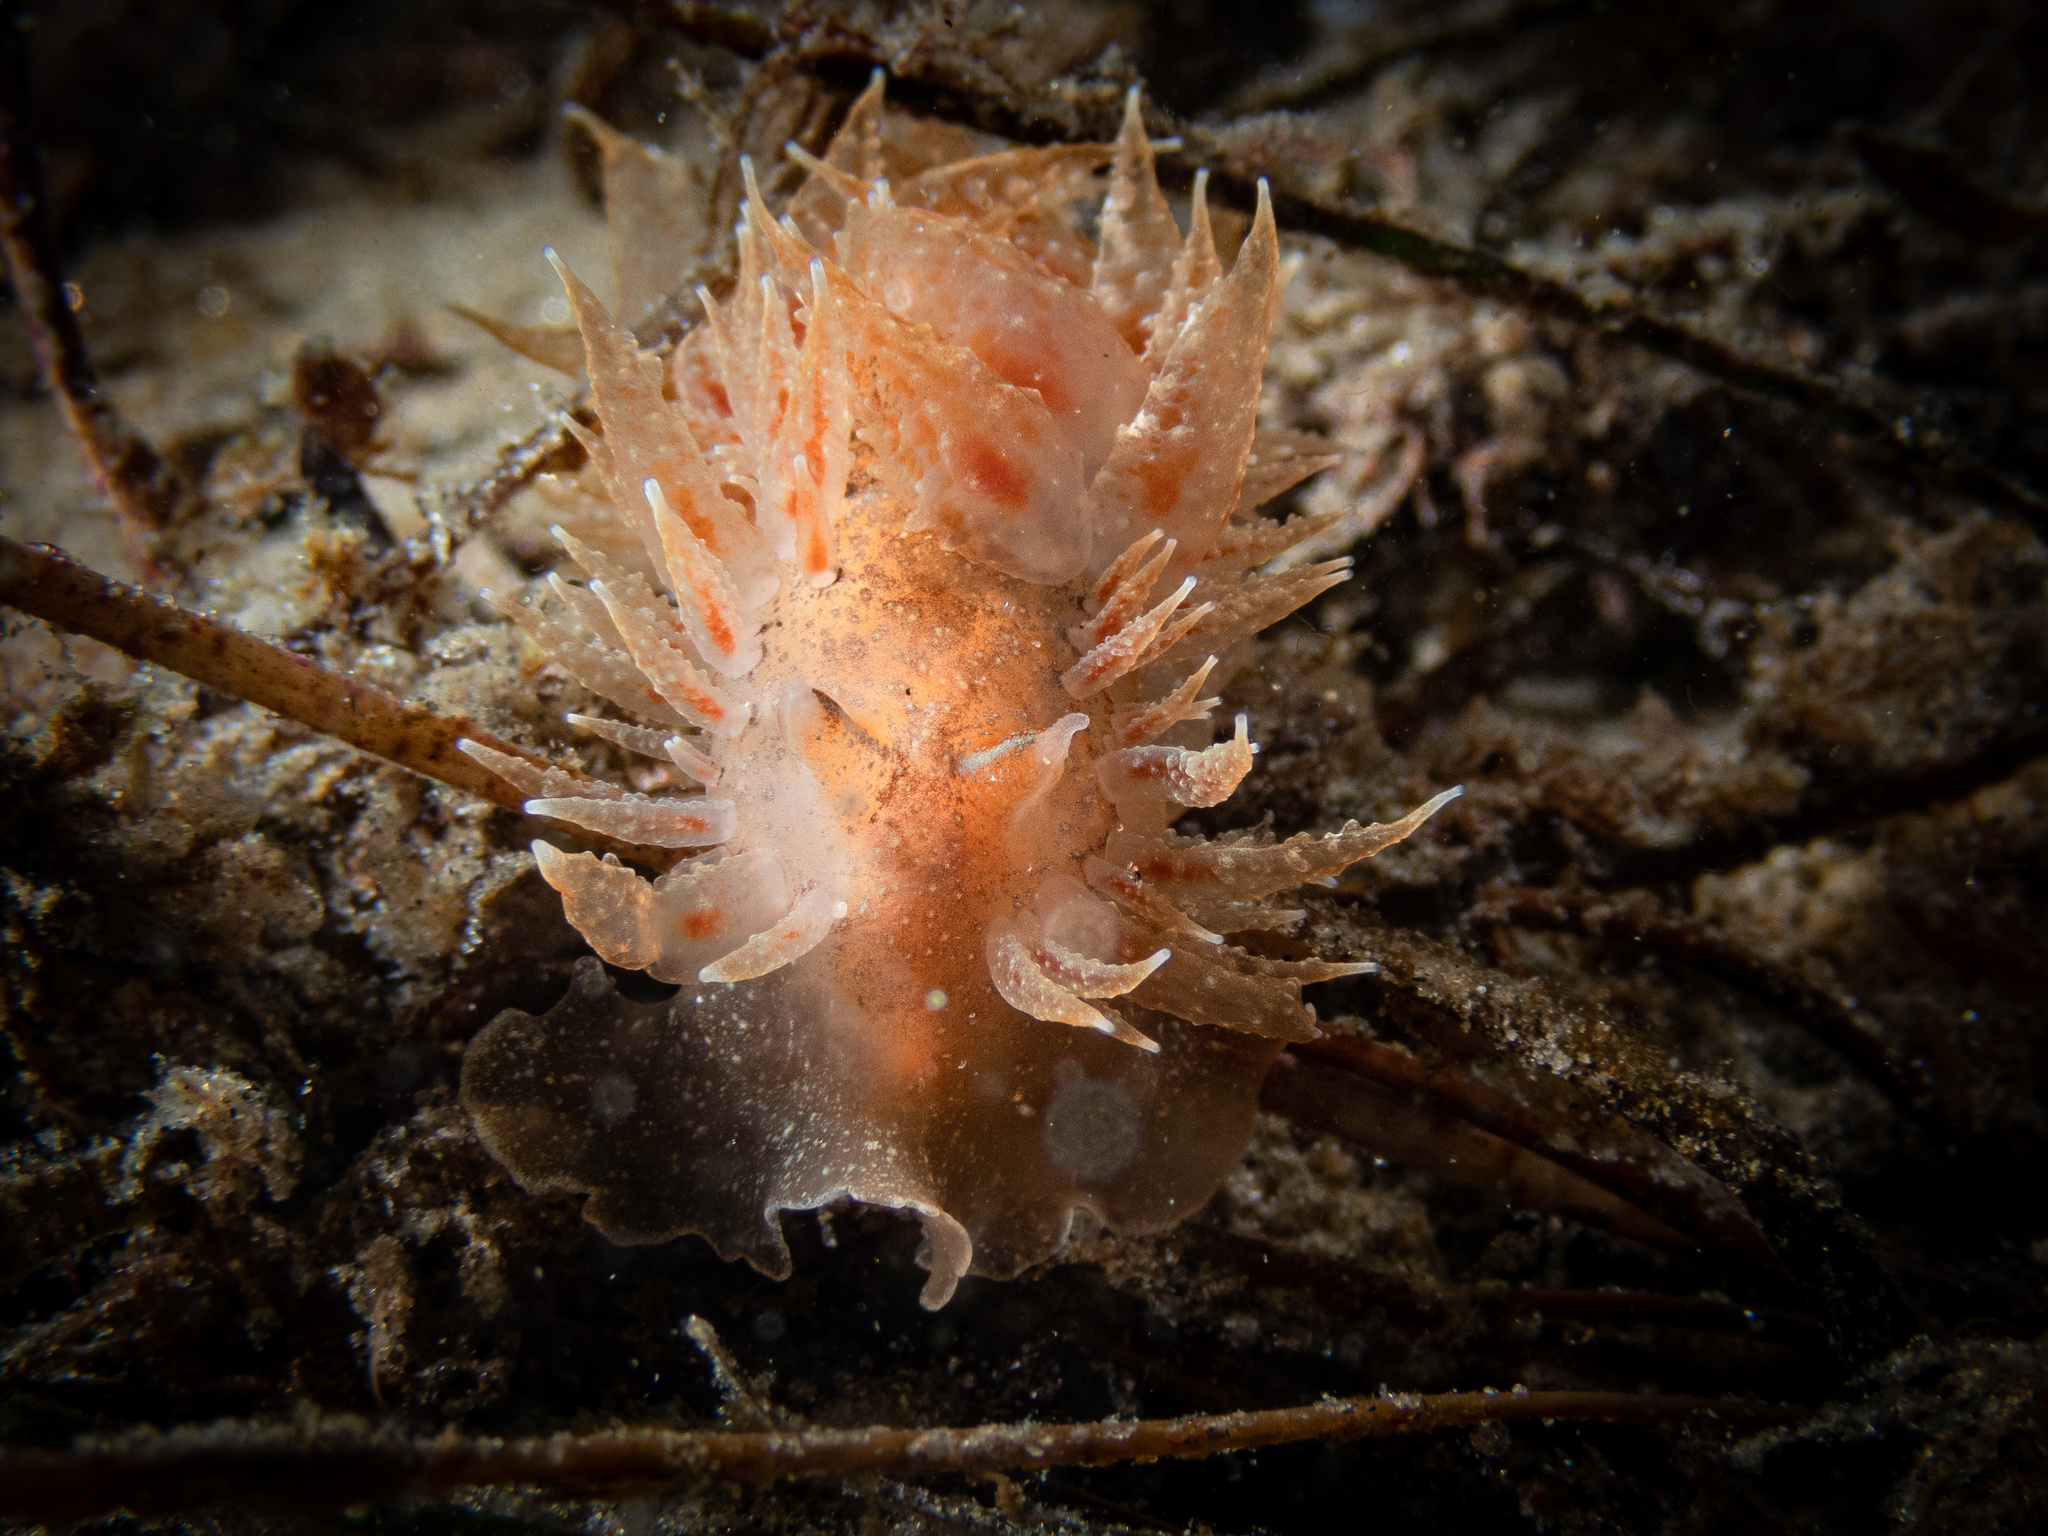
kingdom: Animalia
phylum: Mollusca
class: Gastropoda
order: Nudibranchia
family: Dironidae
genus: Dirona
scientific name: Dirona picta
